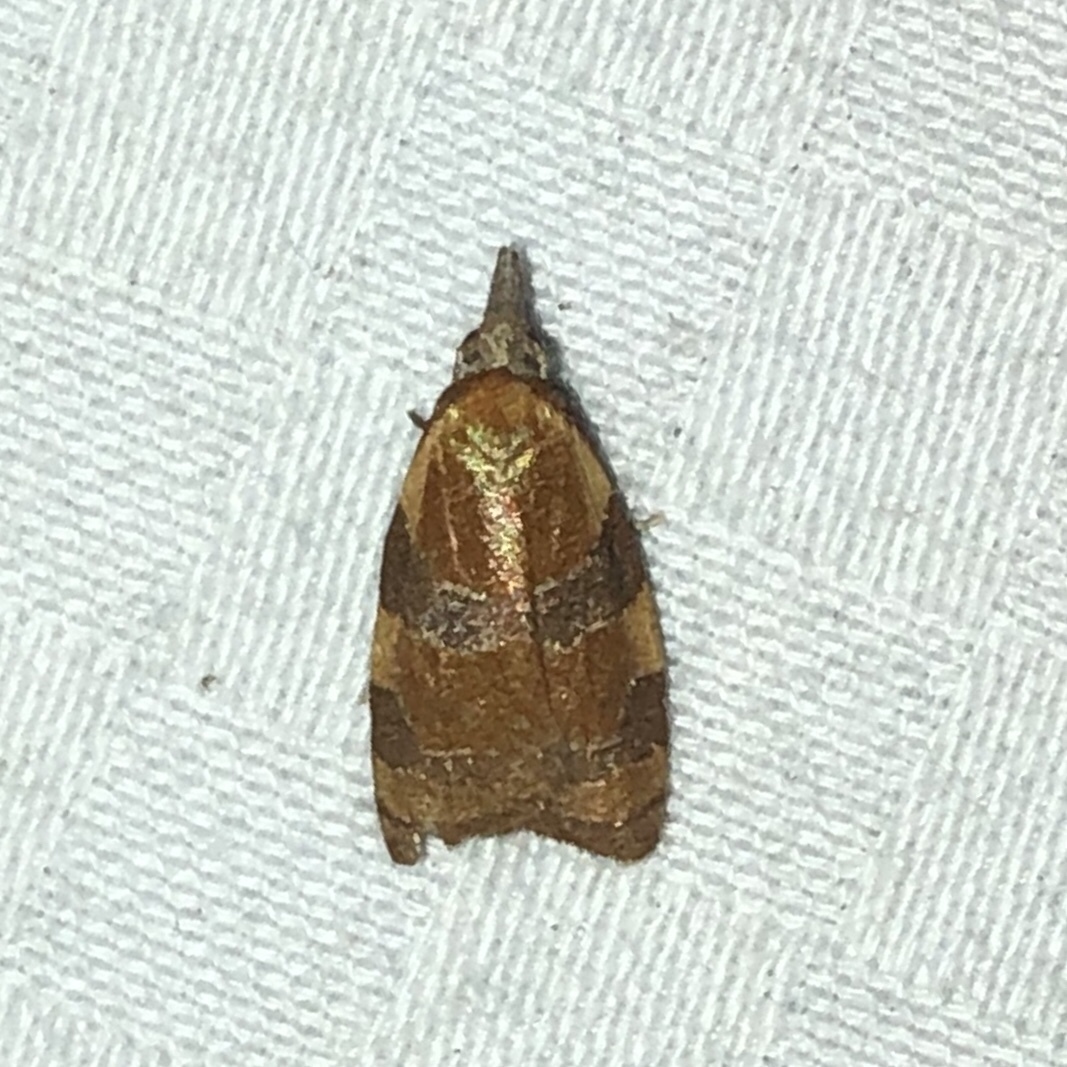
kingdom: Animalia
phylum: Arthropoda
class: Insecta
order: Lepidoptera
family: Tortricidae
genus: Cenopis
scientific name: Cenopis diluticostana
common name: Spring dead-leaf roller moth
